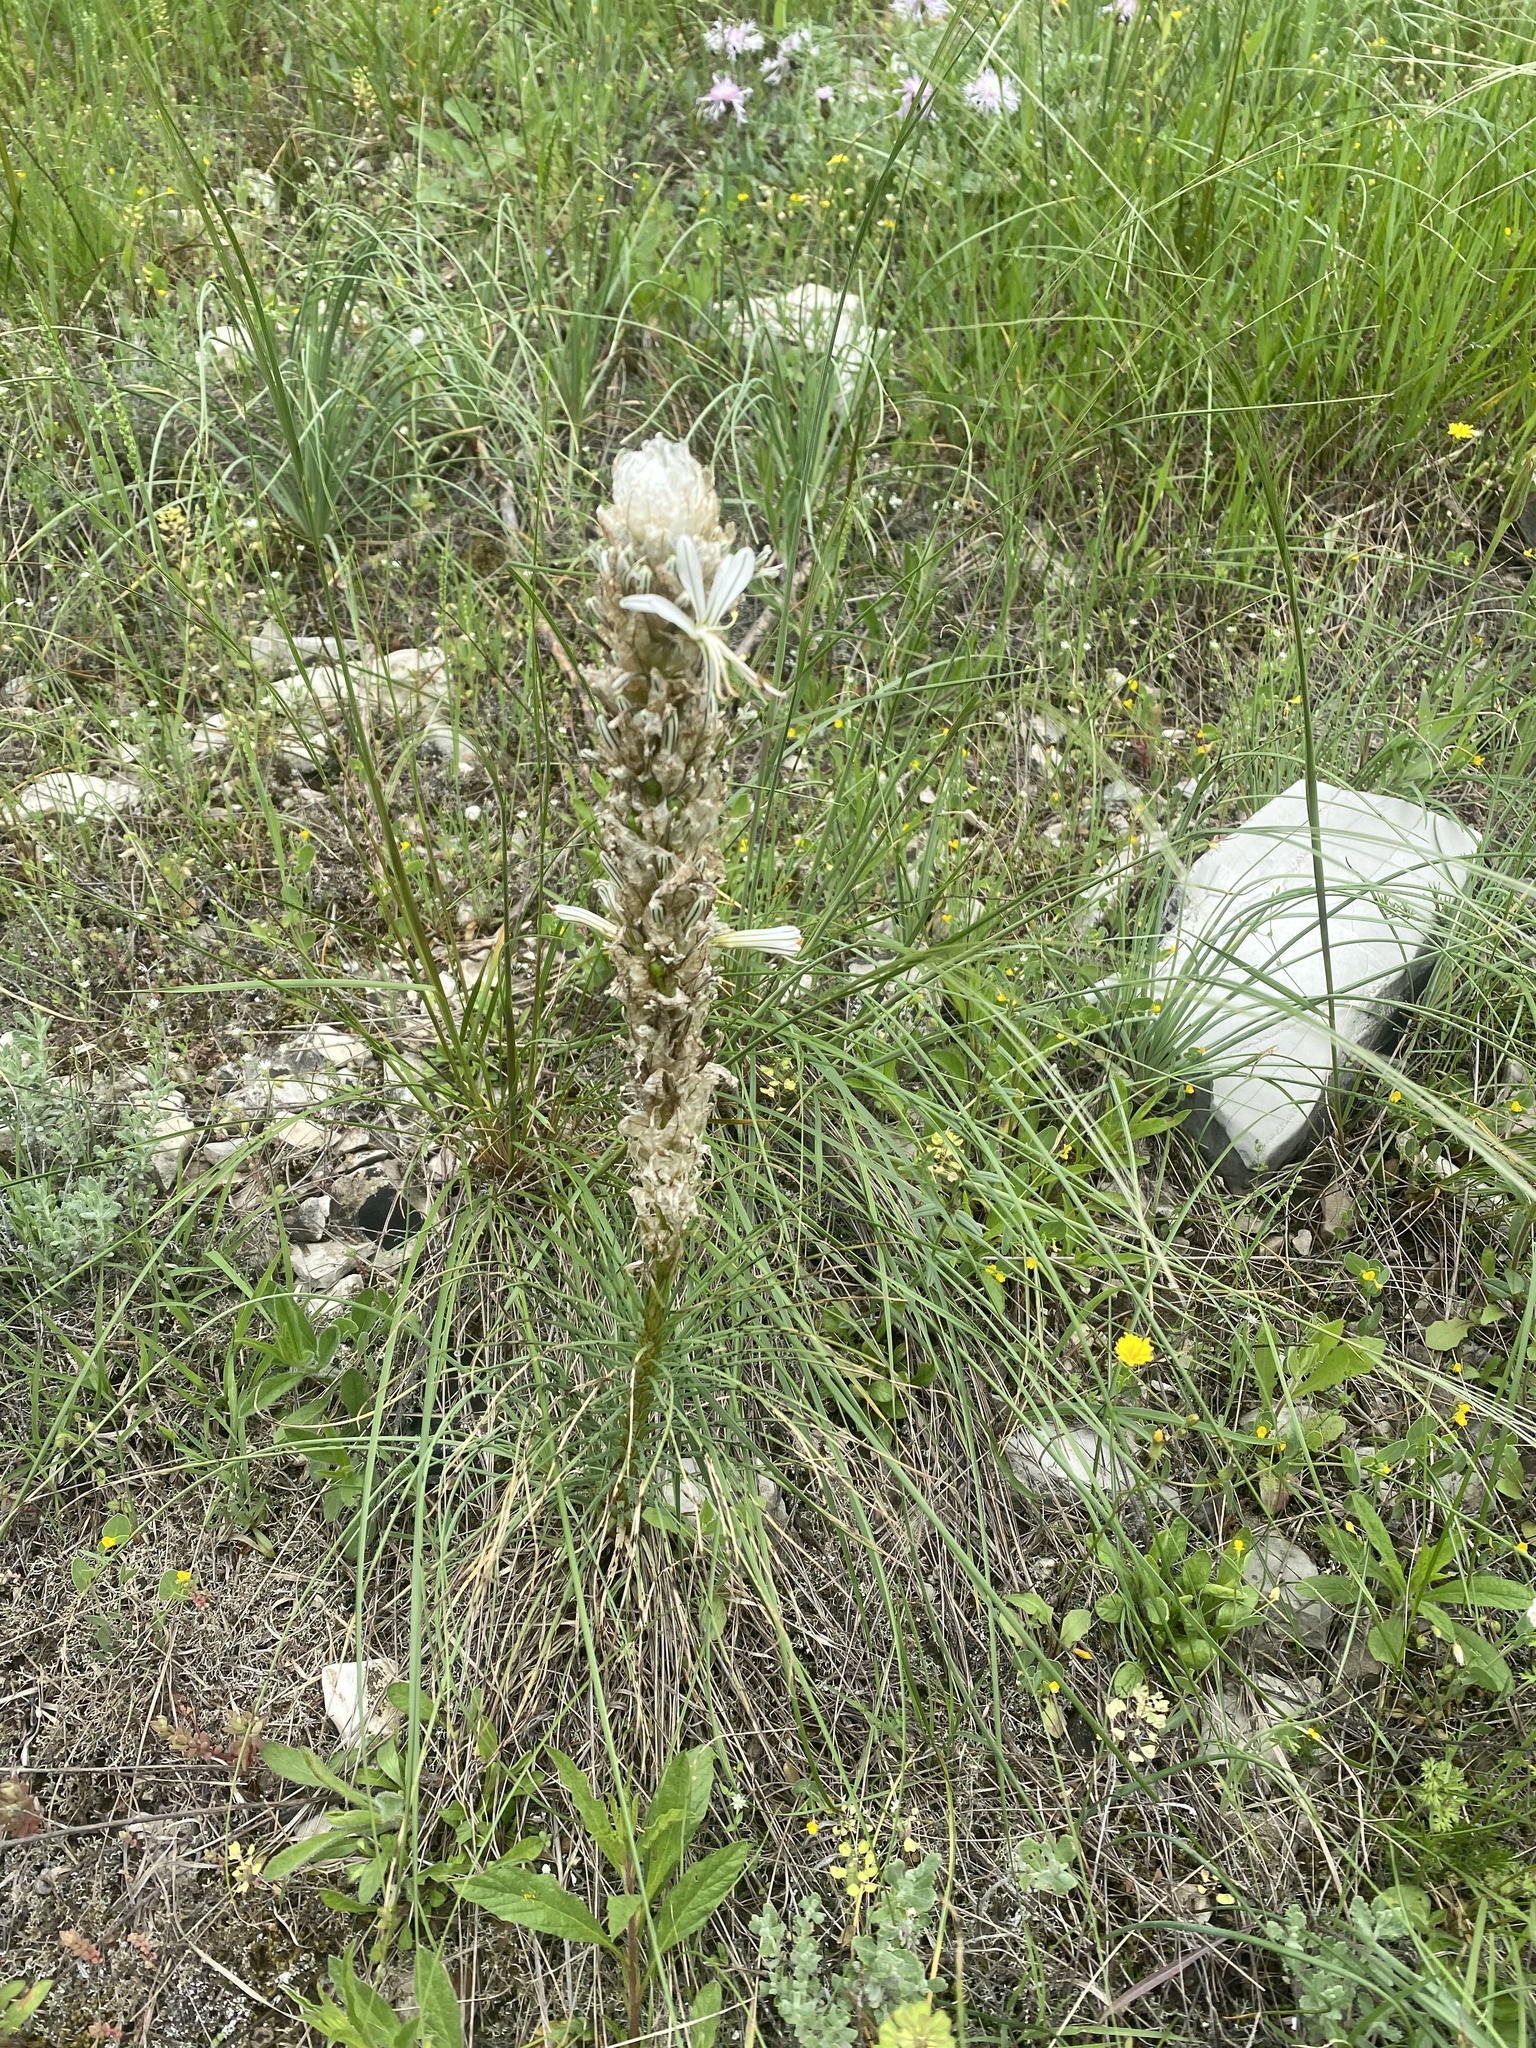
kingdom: Plantae
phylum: Tracheophyta
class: Liliopsida
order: Asparagales
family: Asphodelaceae
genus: Asphodeline
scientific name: Asphodeline taurica
